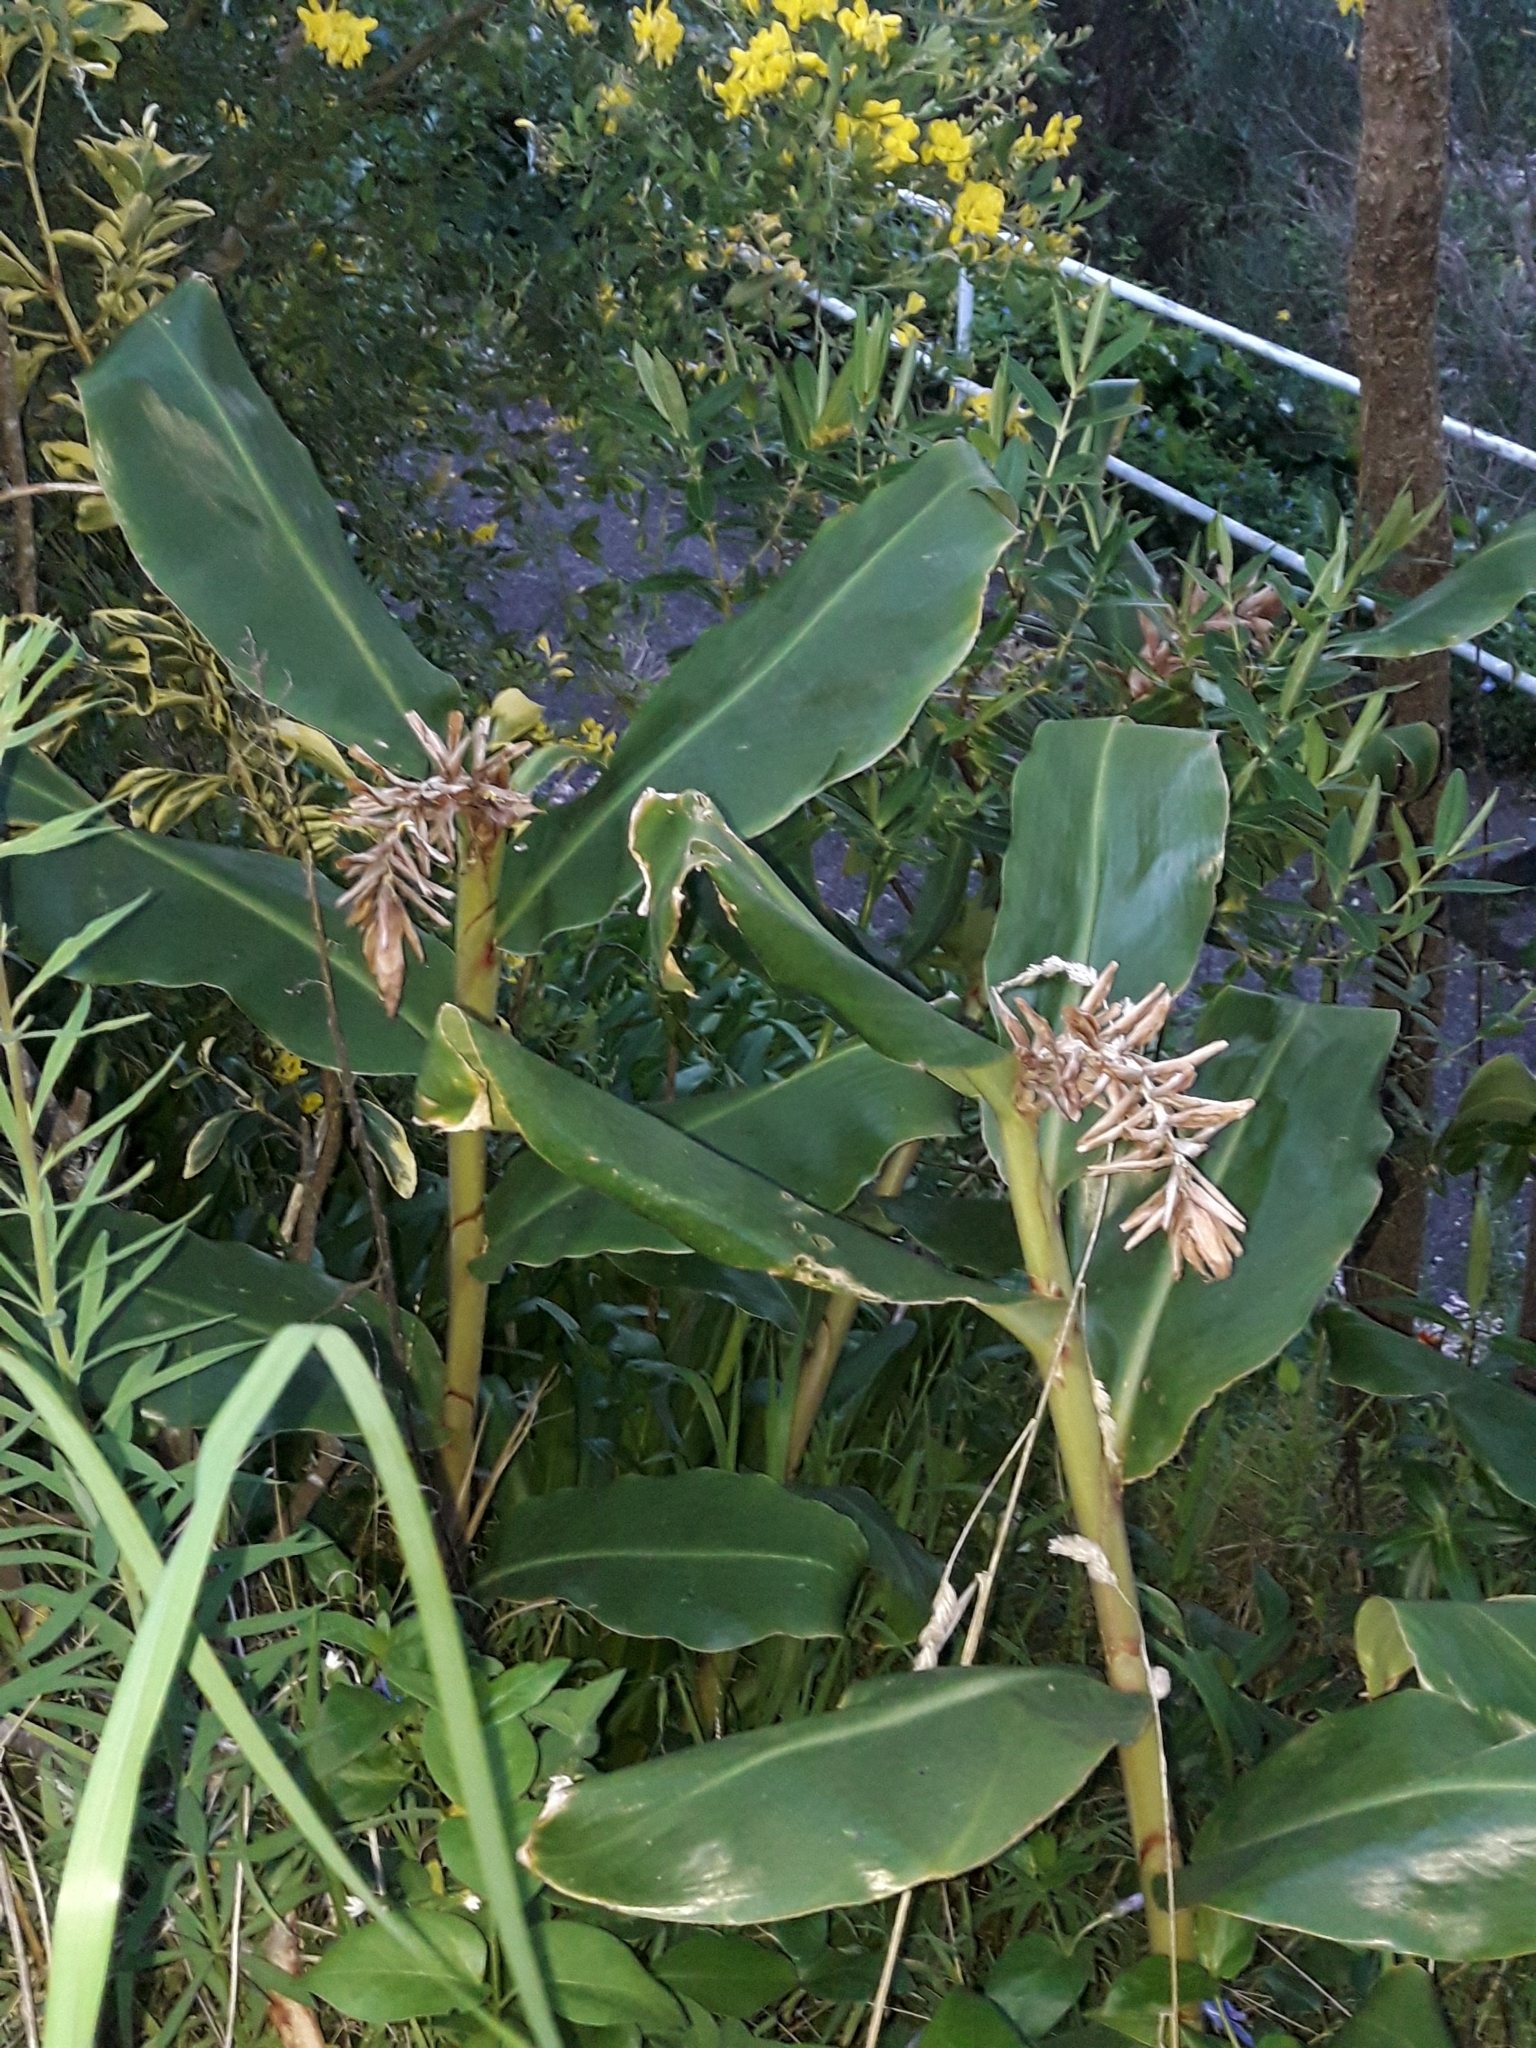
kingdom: Plantae
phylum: Tracheophyta
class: Liliopsida
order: Zingiberales
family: Zingiberaceae
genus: Hedychium
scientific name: Hedychium gardnerianum
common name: Himalayan ginger
